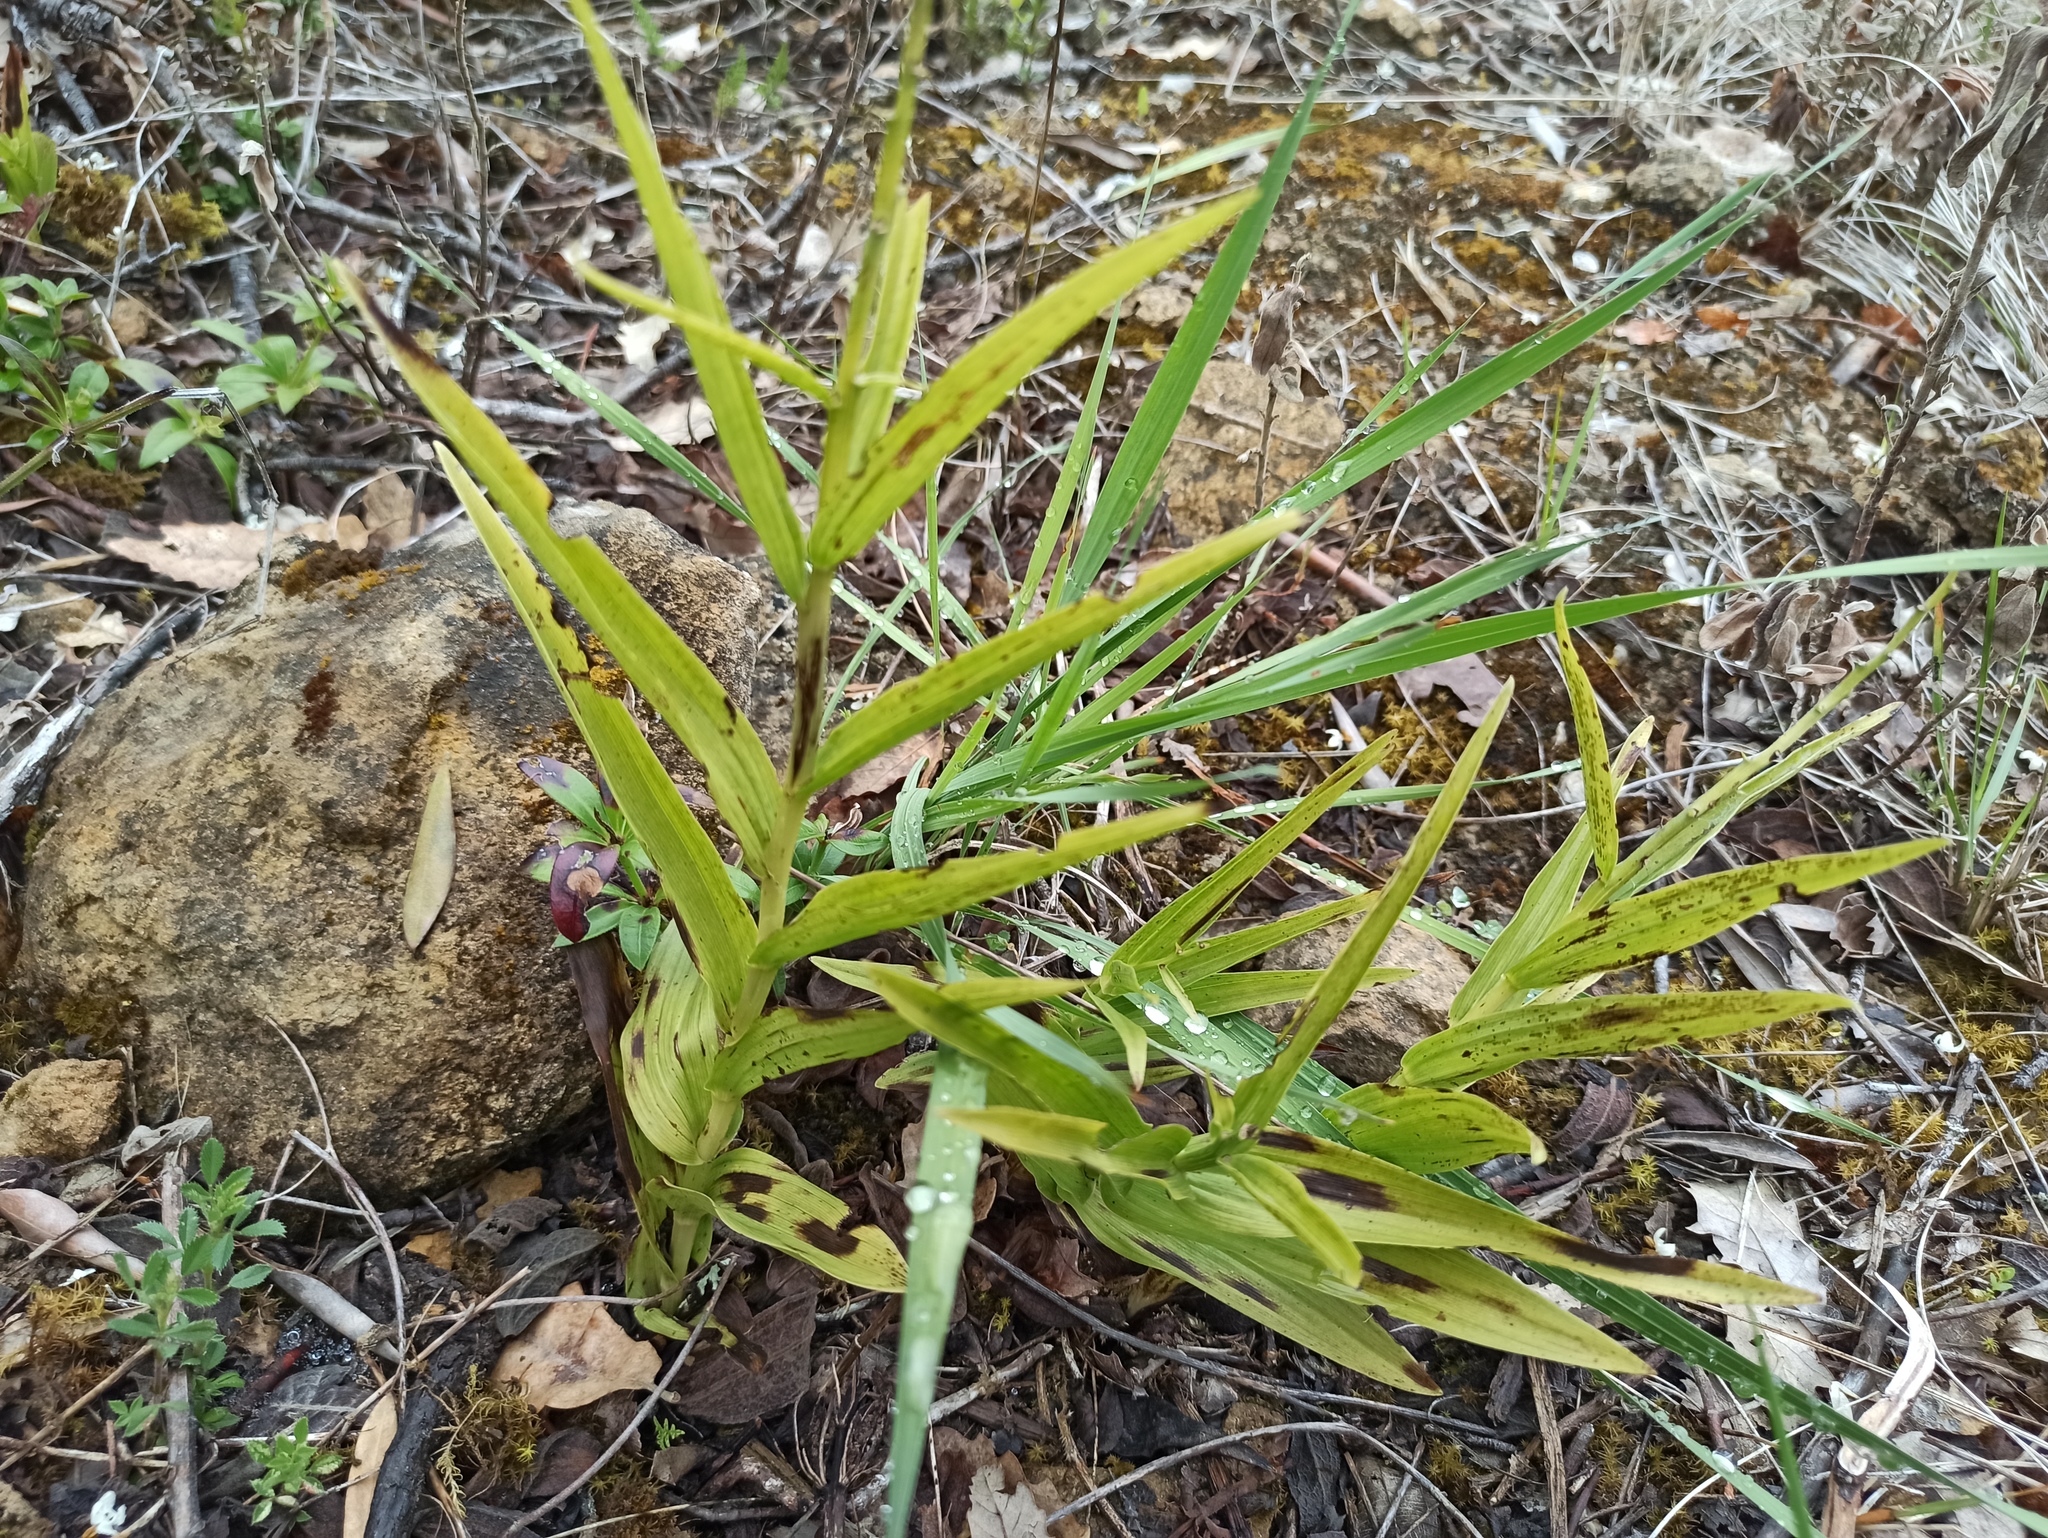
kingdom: Plantae
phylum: Tracheophyta
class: Liliopsida
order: Asparagales
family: Orchidaceae
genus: Cephalanthera
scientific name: Cephalanthera longifolia
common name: Narrow-leaved helleborine
